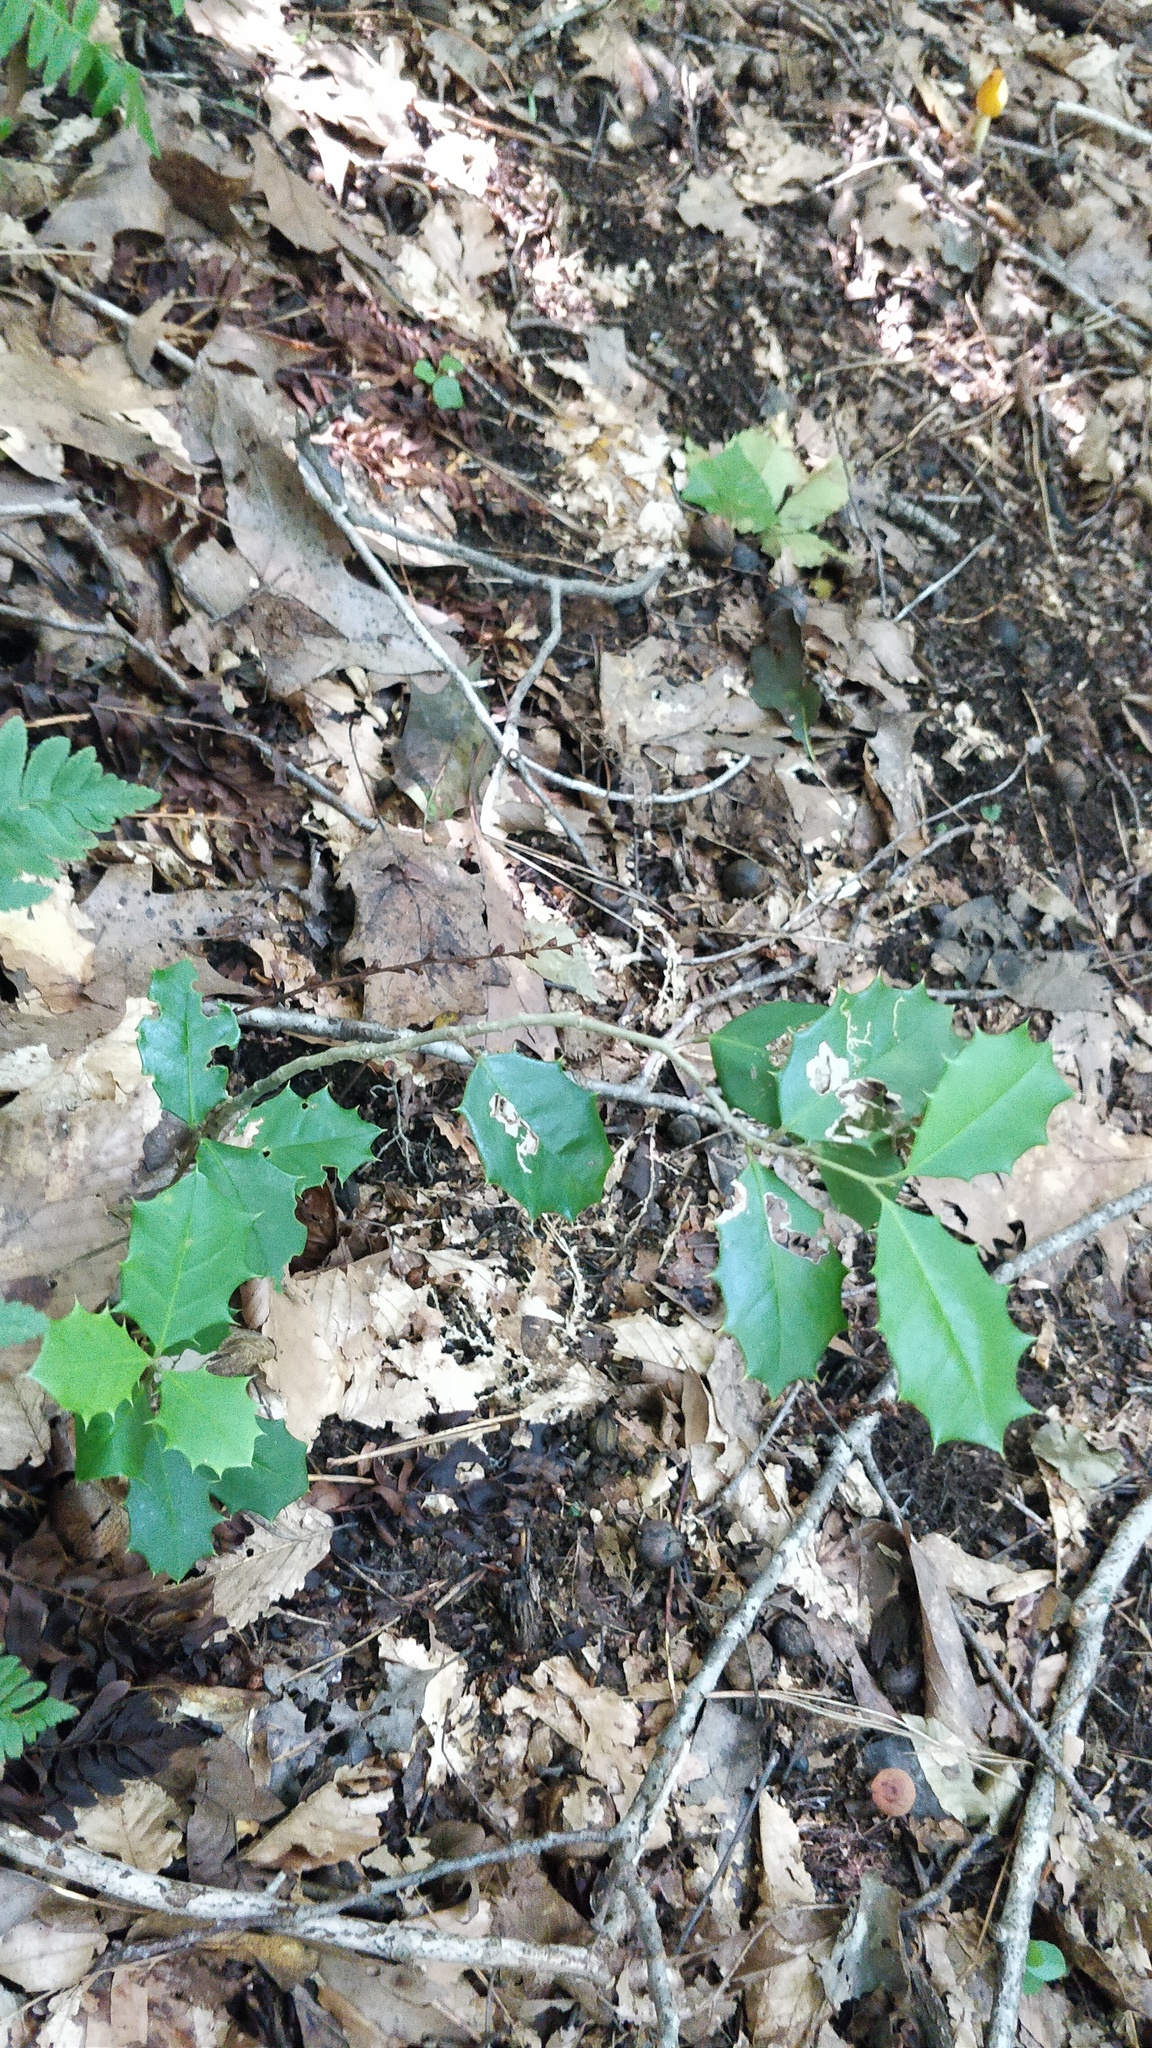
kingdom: Plantae
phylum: Tracheophyta
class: Magnoliopsida
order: Aquifoliales
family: Aquifoliaceae
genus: Ilex
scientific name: Ilex opaca
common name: American holly
